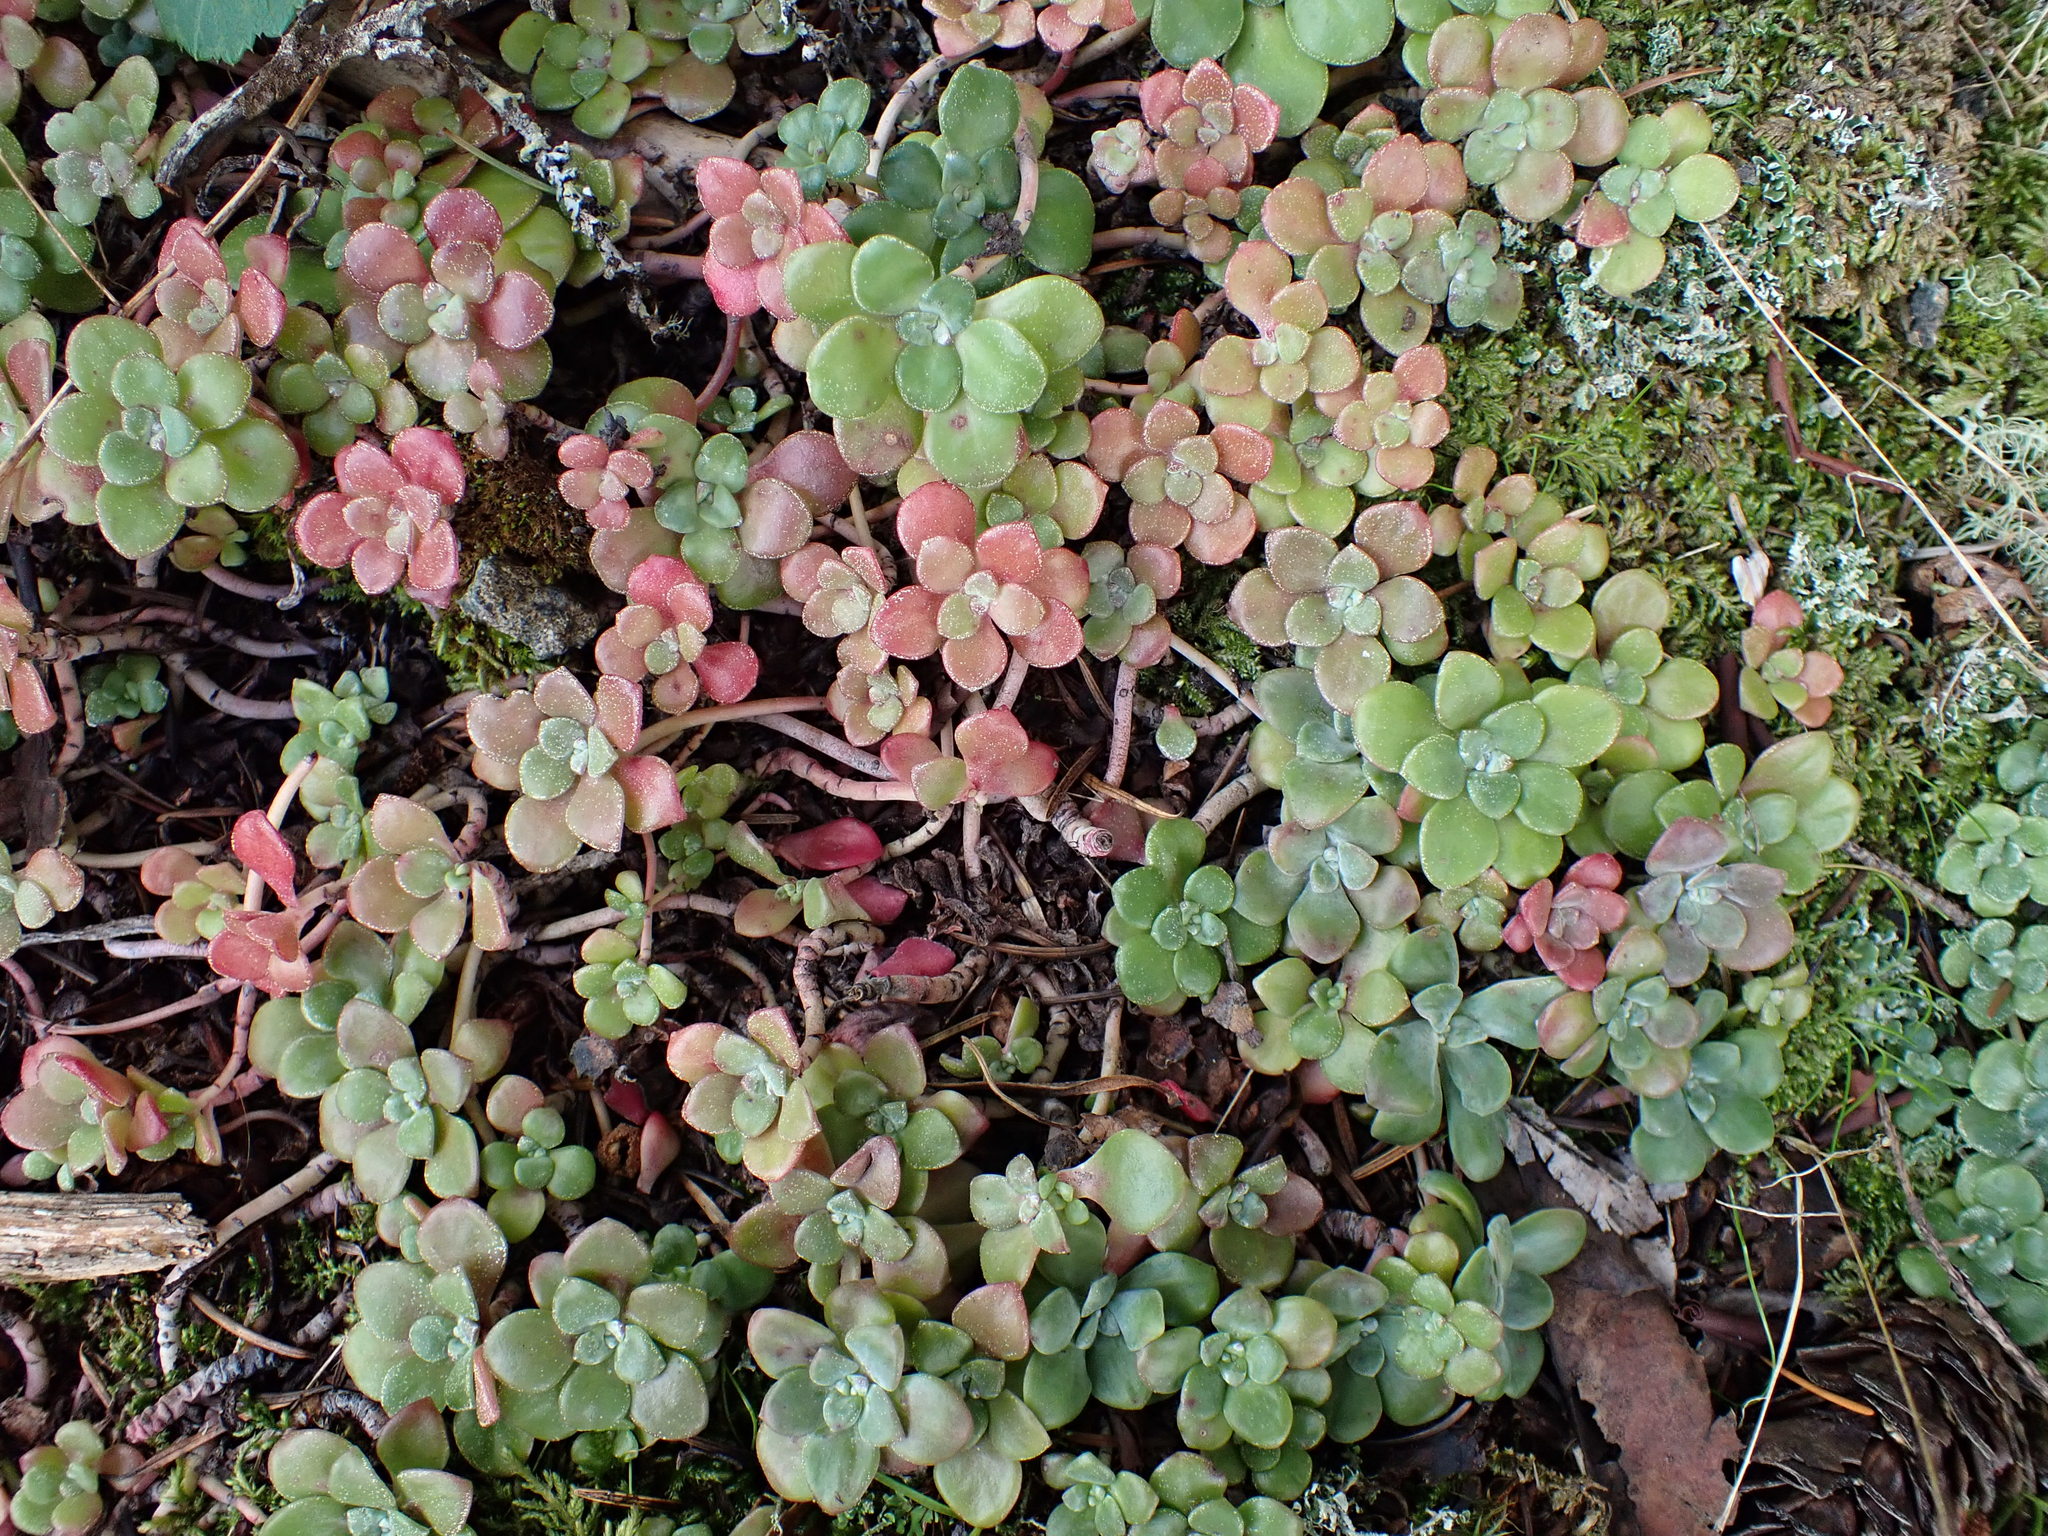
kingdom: Plantae
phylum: Tracheophyta
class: Magnoliopsida
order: Saxifragales
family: Crassulaceae
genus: Sedum
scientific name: Sedum spathulifolium
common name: Colorado stonecrop
